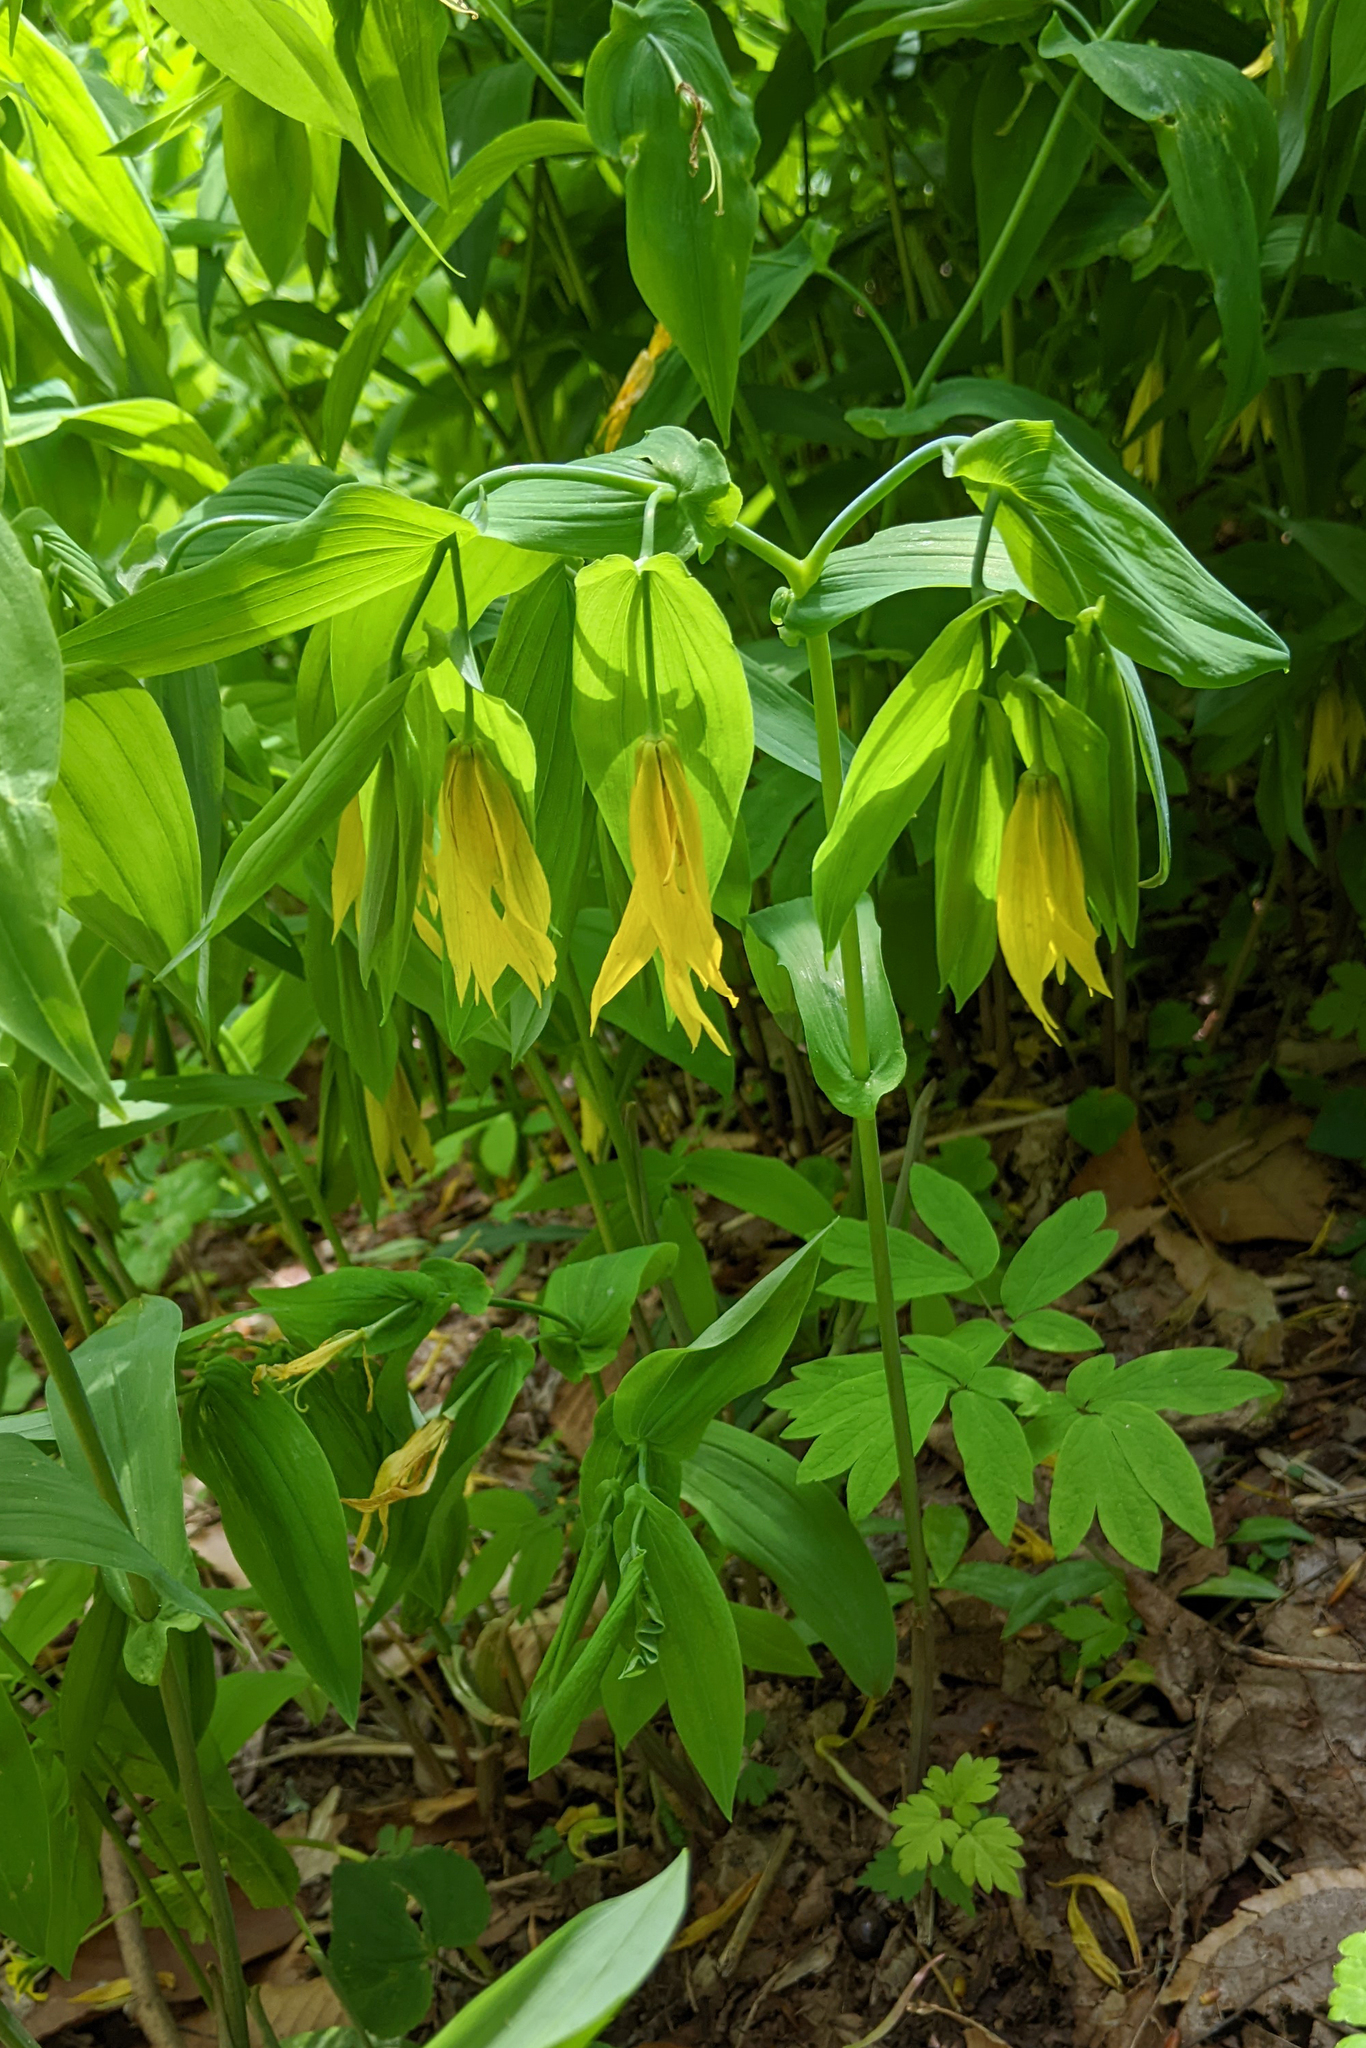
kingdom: Plantae
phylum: Tracheophyta
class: Liliopsida
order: Liliales
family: Colchicaceae
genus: Uvularia
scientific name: Uvularia grandiflora
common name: Bellwort
